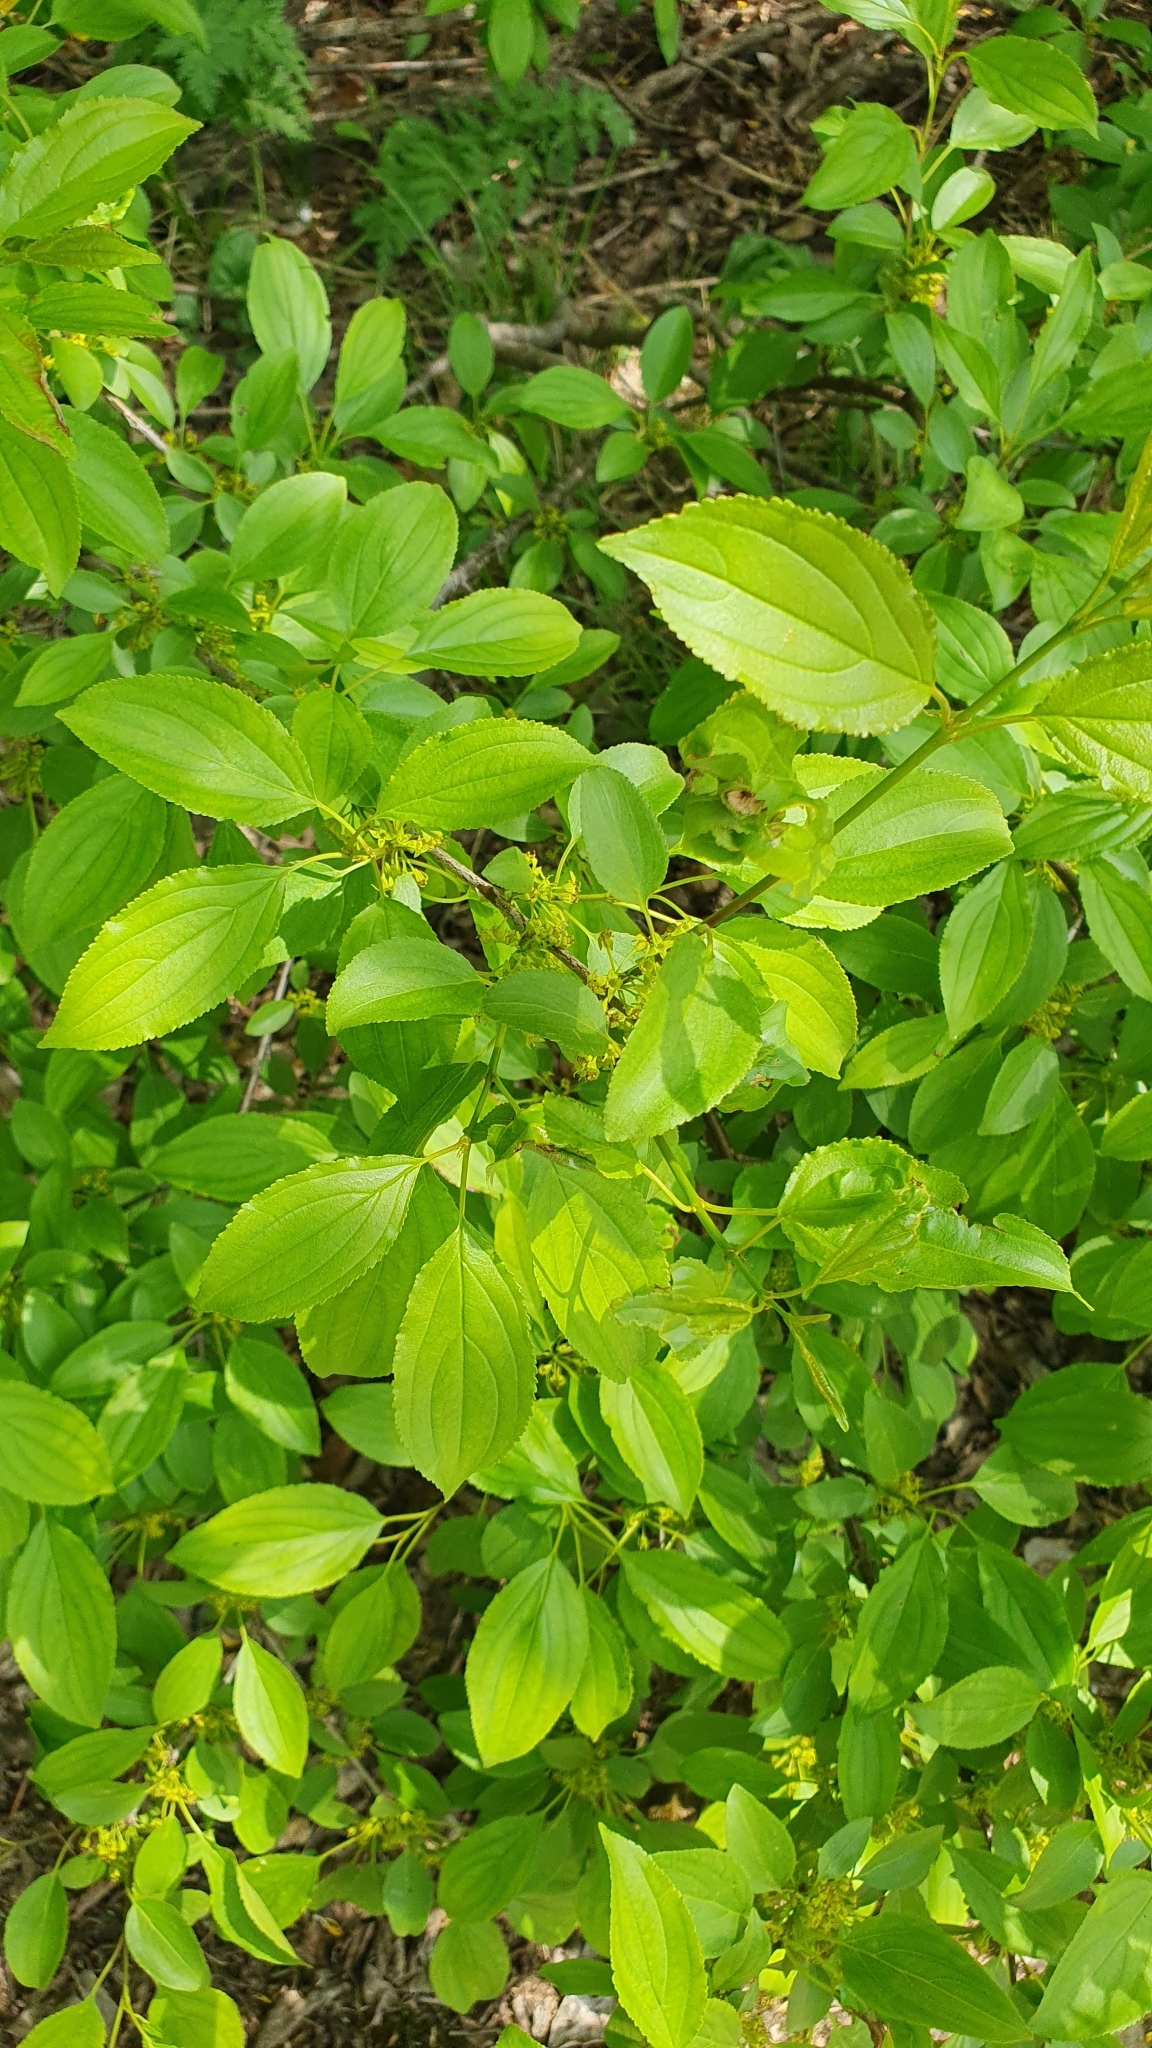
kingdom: Plantae
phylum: Tracheophyta
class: Magnoliopsida
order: Rosales
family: Rhamnaceae
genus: Rhamnus
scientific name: Rhamnus cathartica
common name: Common buckthorn
